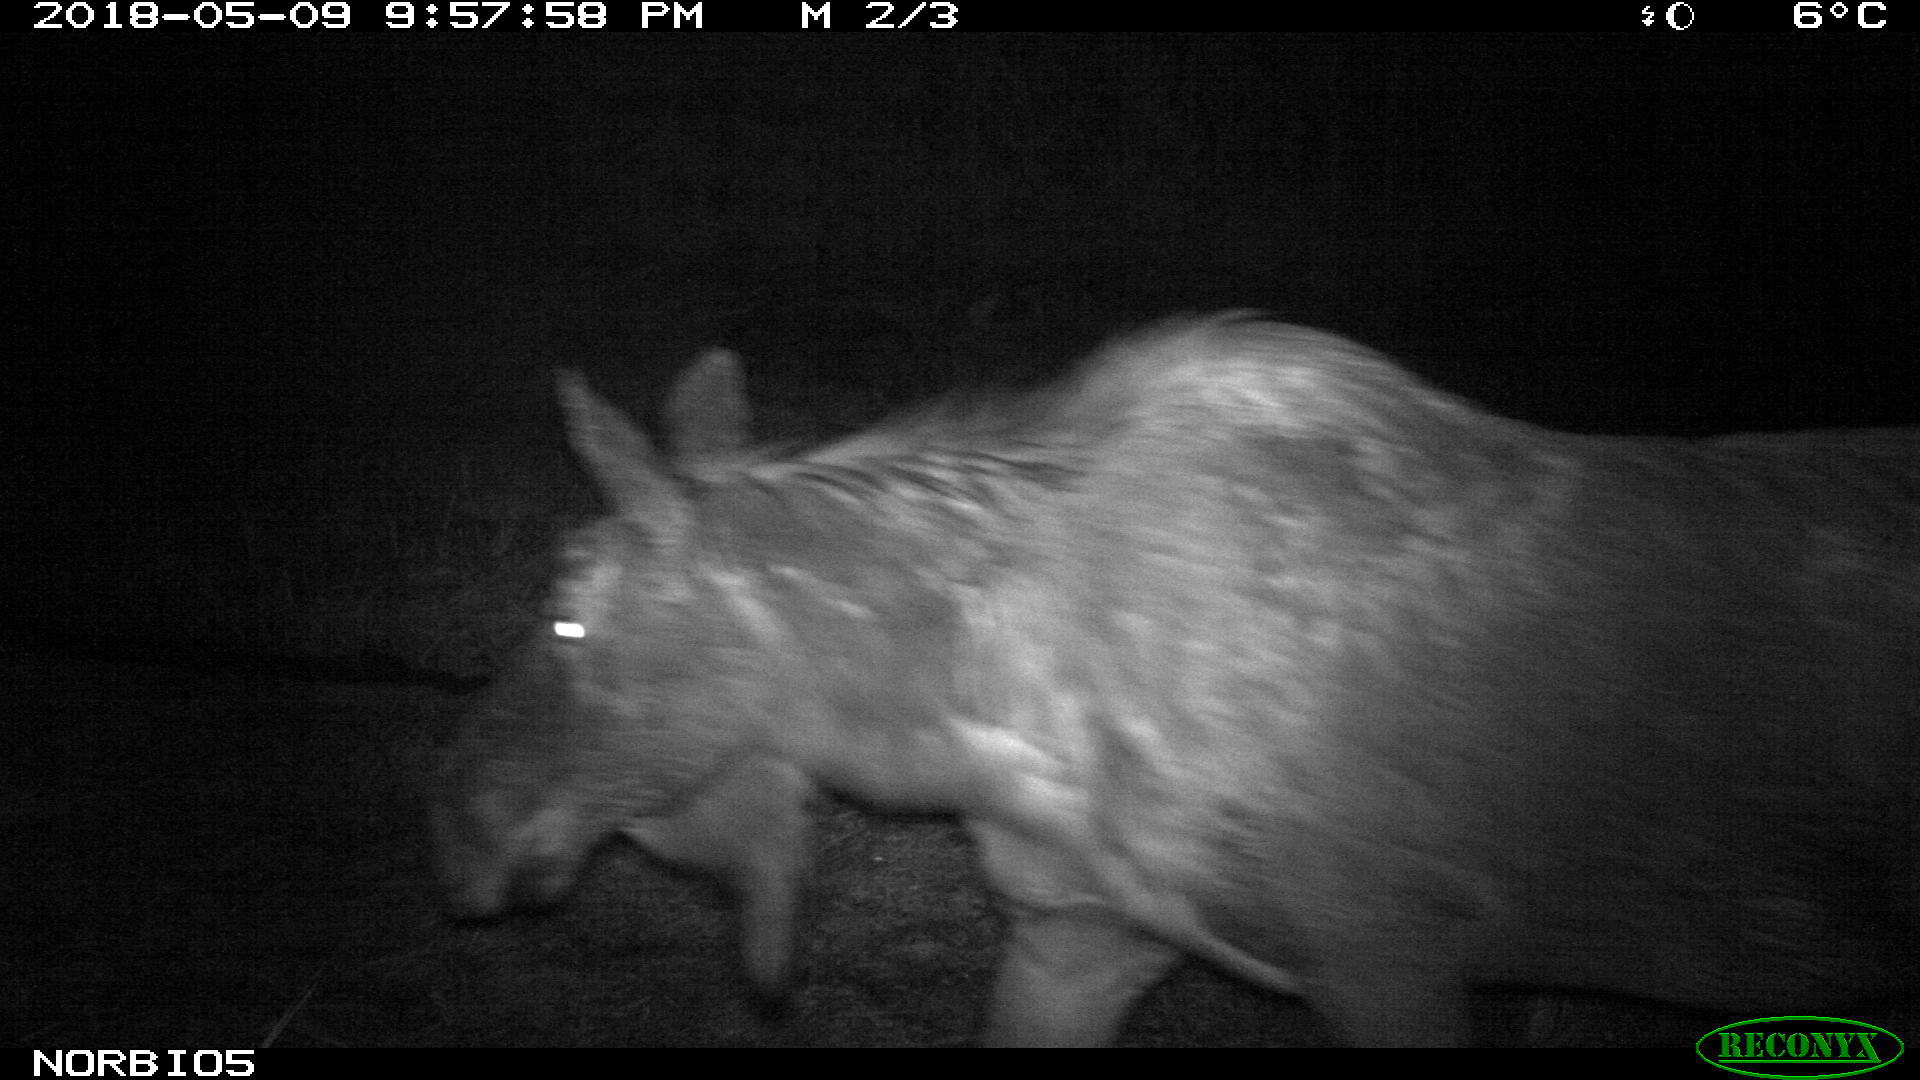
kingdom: Animalia
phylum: Chordata
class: Mammalia
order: Artiodactyla
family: Cervidae
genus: Alces
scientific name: Alces alces
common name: Moose
